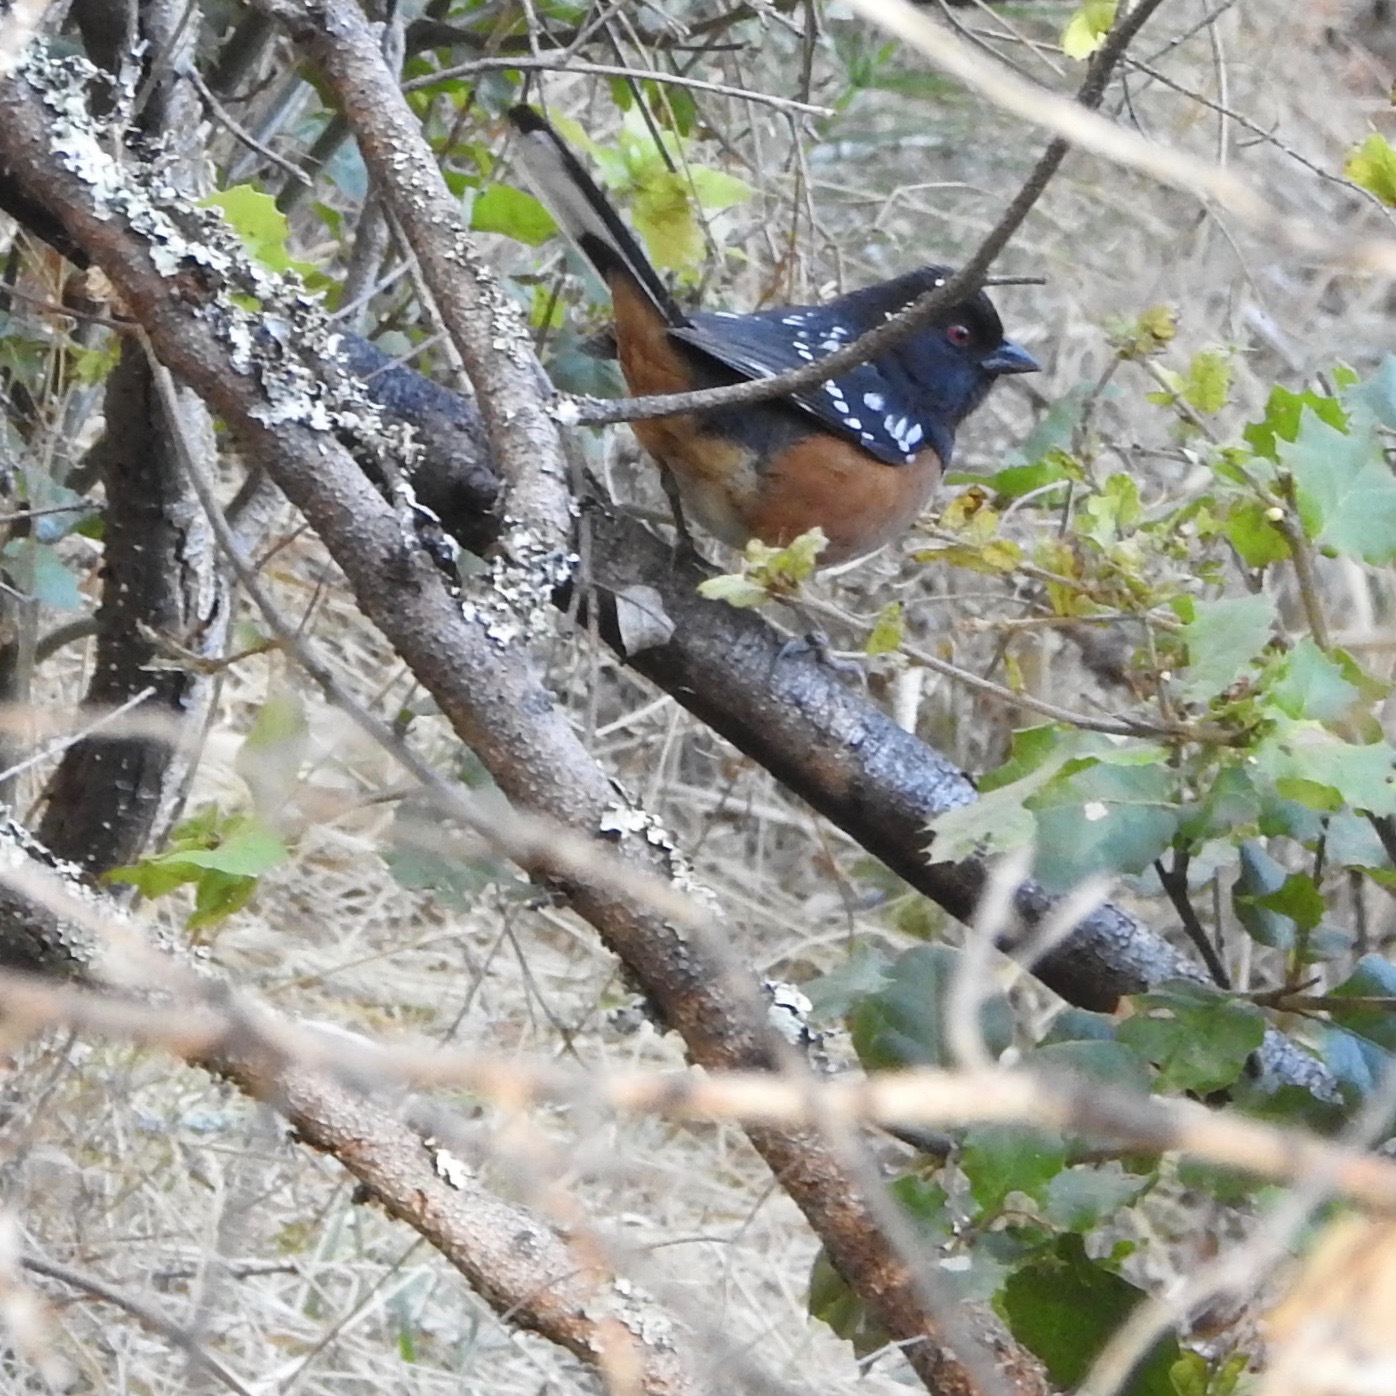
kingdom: Animalia
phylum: Chordata
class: Aves
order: Passeriformes
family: Passerellidae
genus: Pipilo
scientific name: Pipilo maculatus
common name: Spotted towhee
